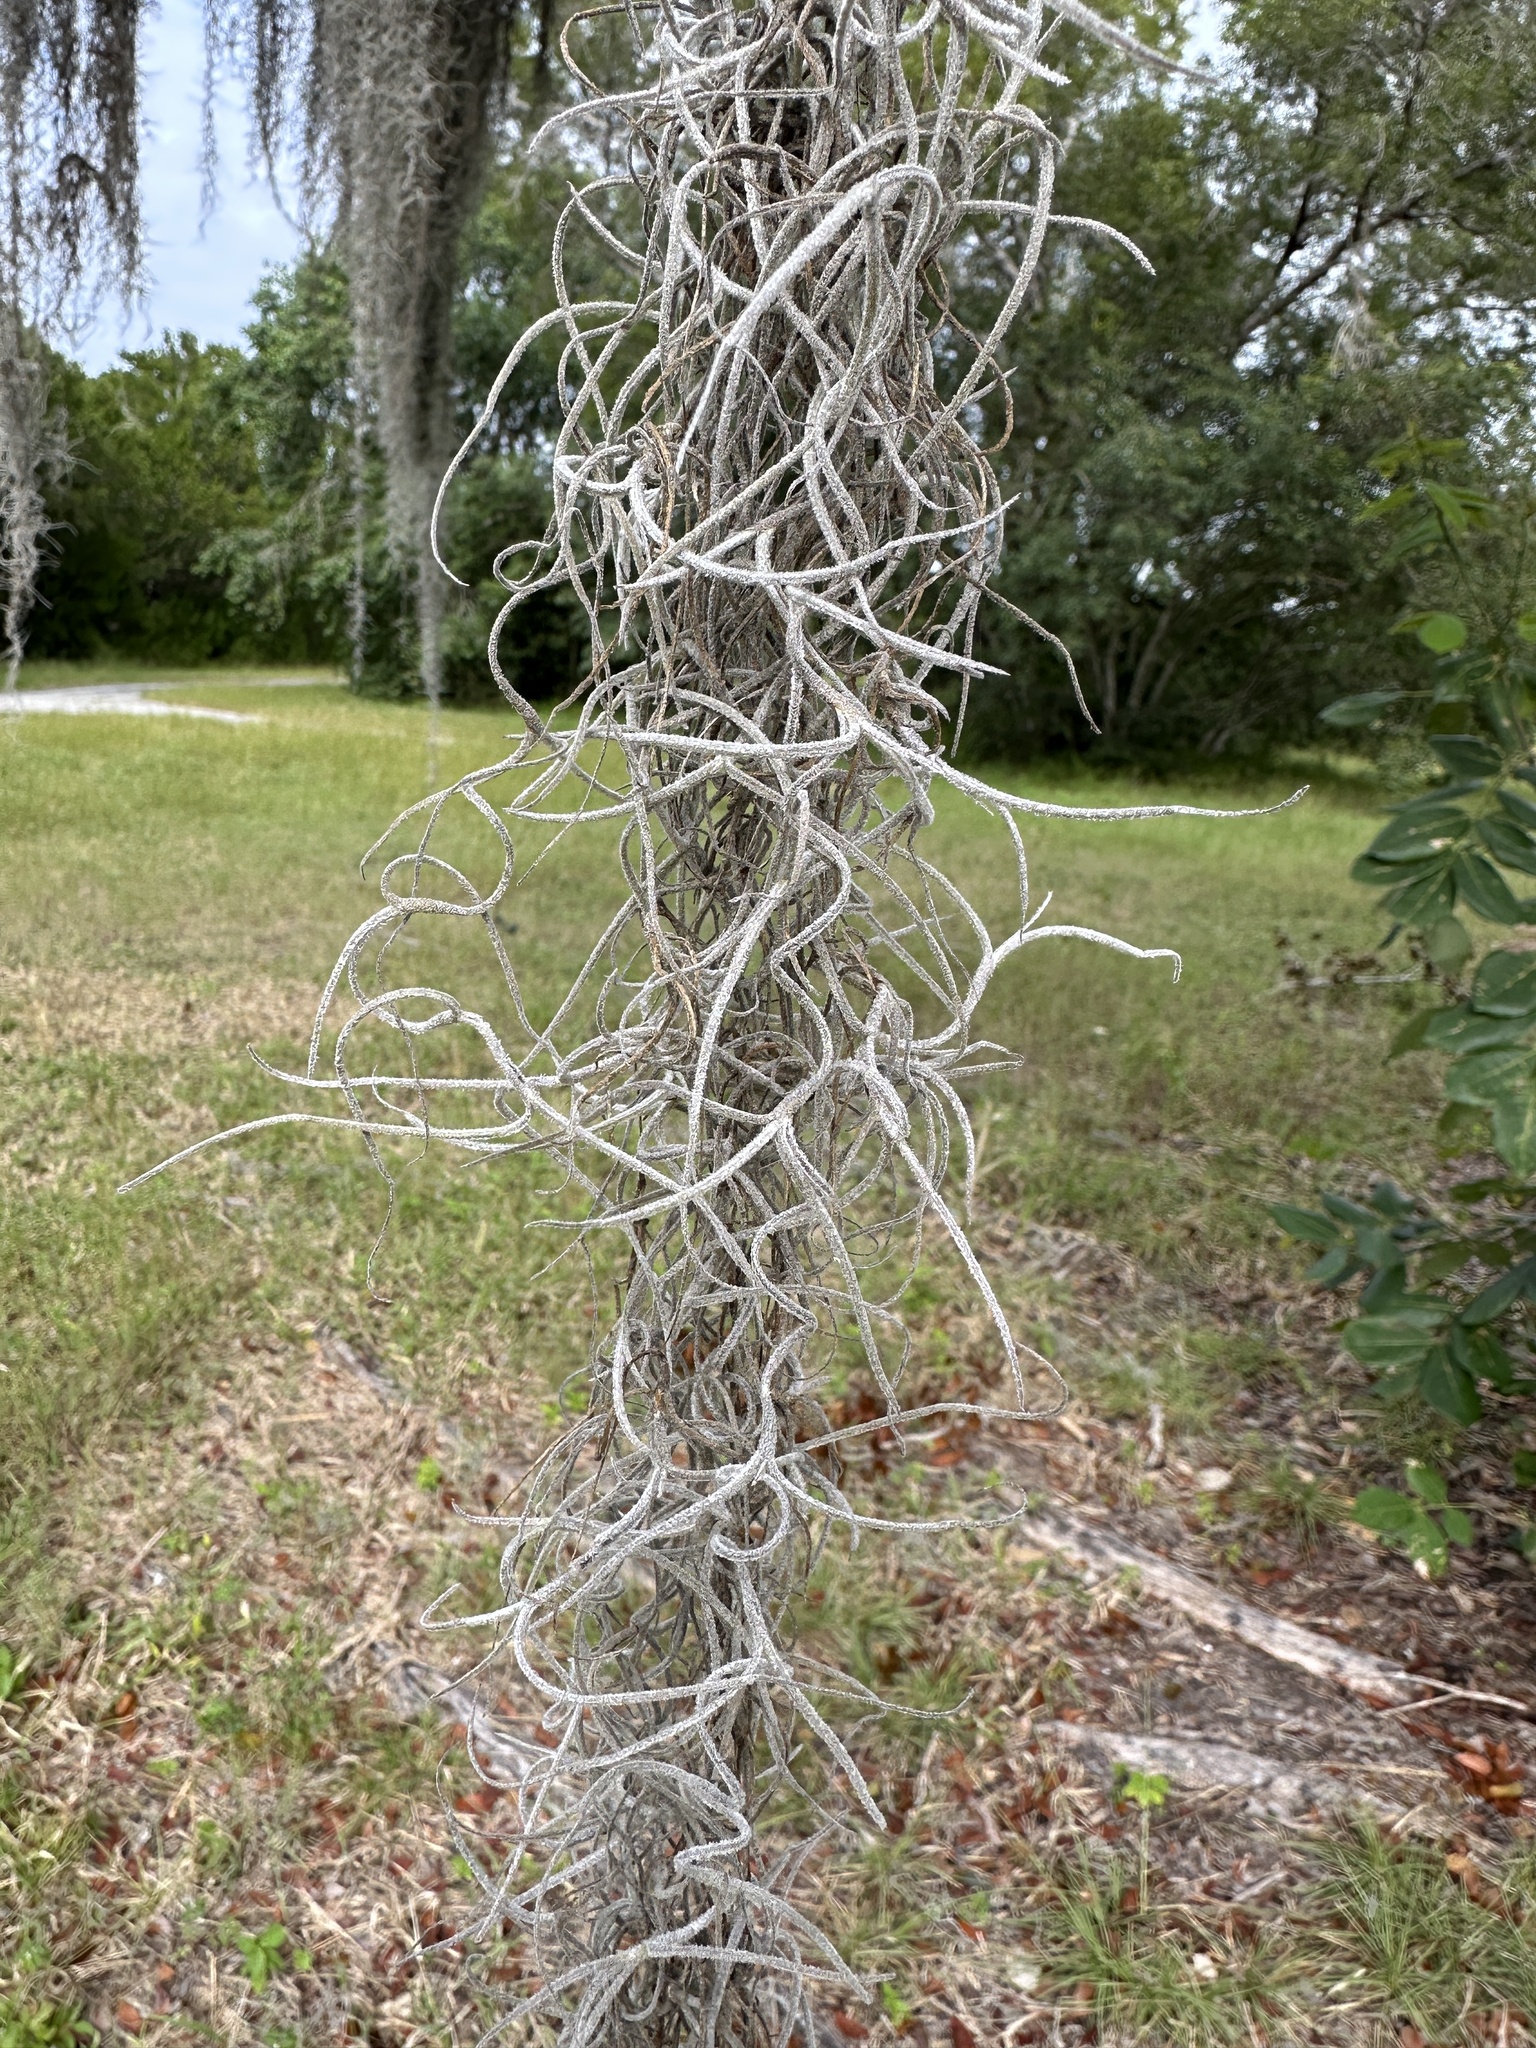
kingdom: Plantae
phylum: Tracheophyta
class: Liliopsida
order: Poales
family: Bromeliaceae
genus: Tillandsia
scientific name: Tillandsia usneoides
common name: Spanish moss
